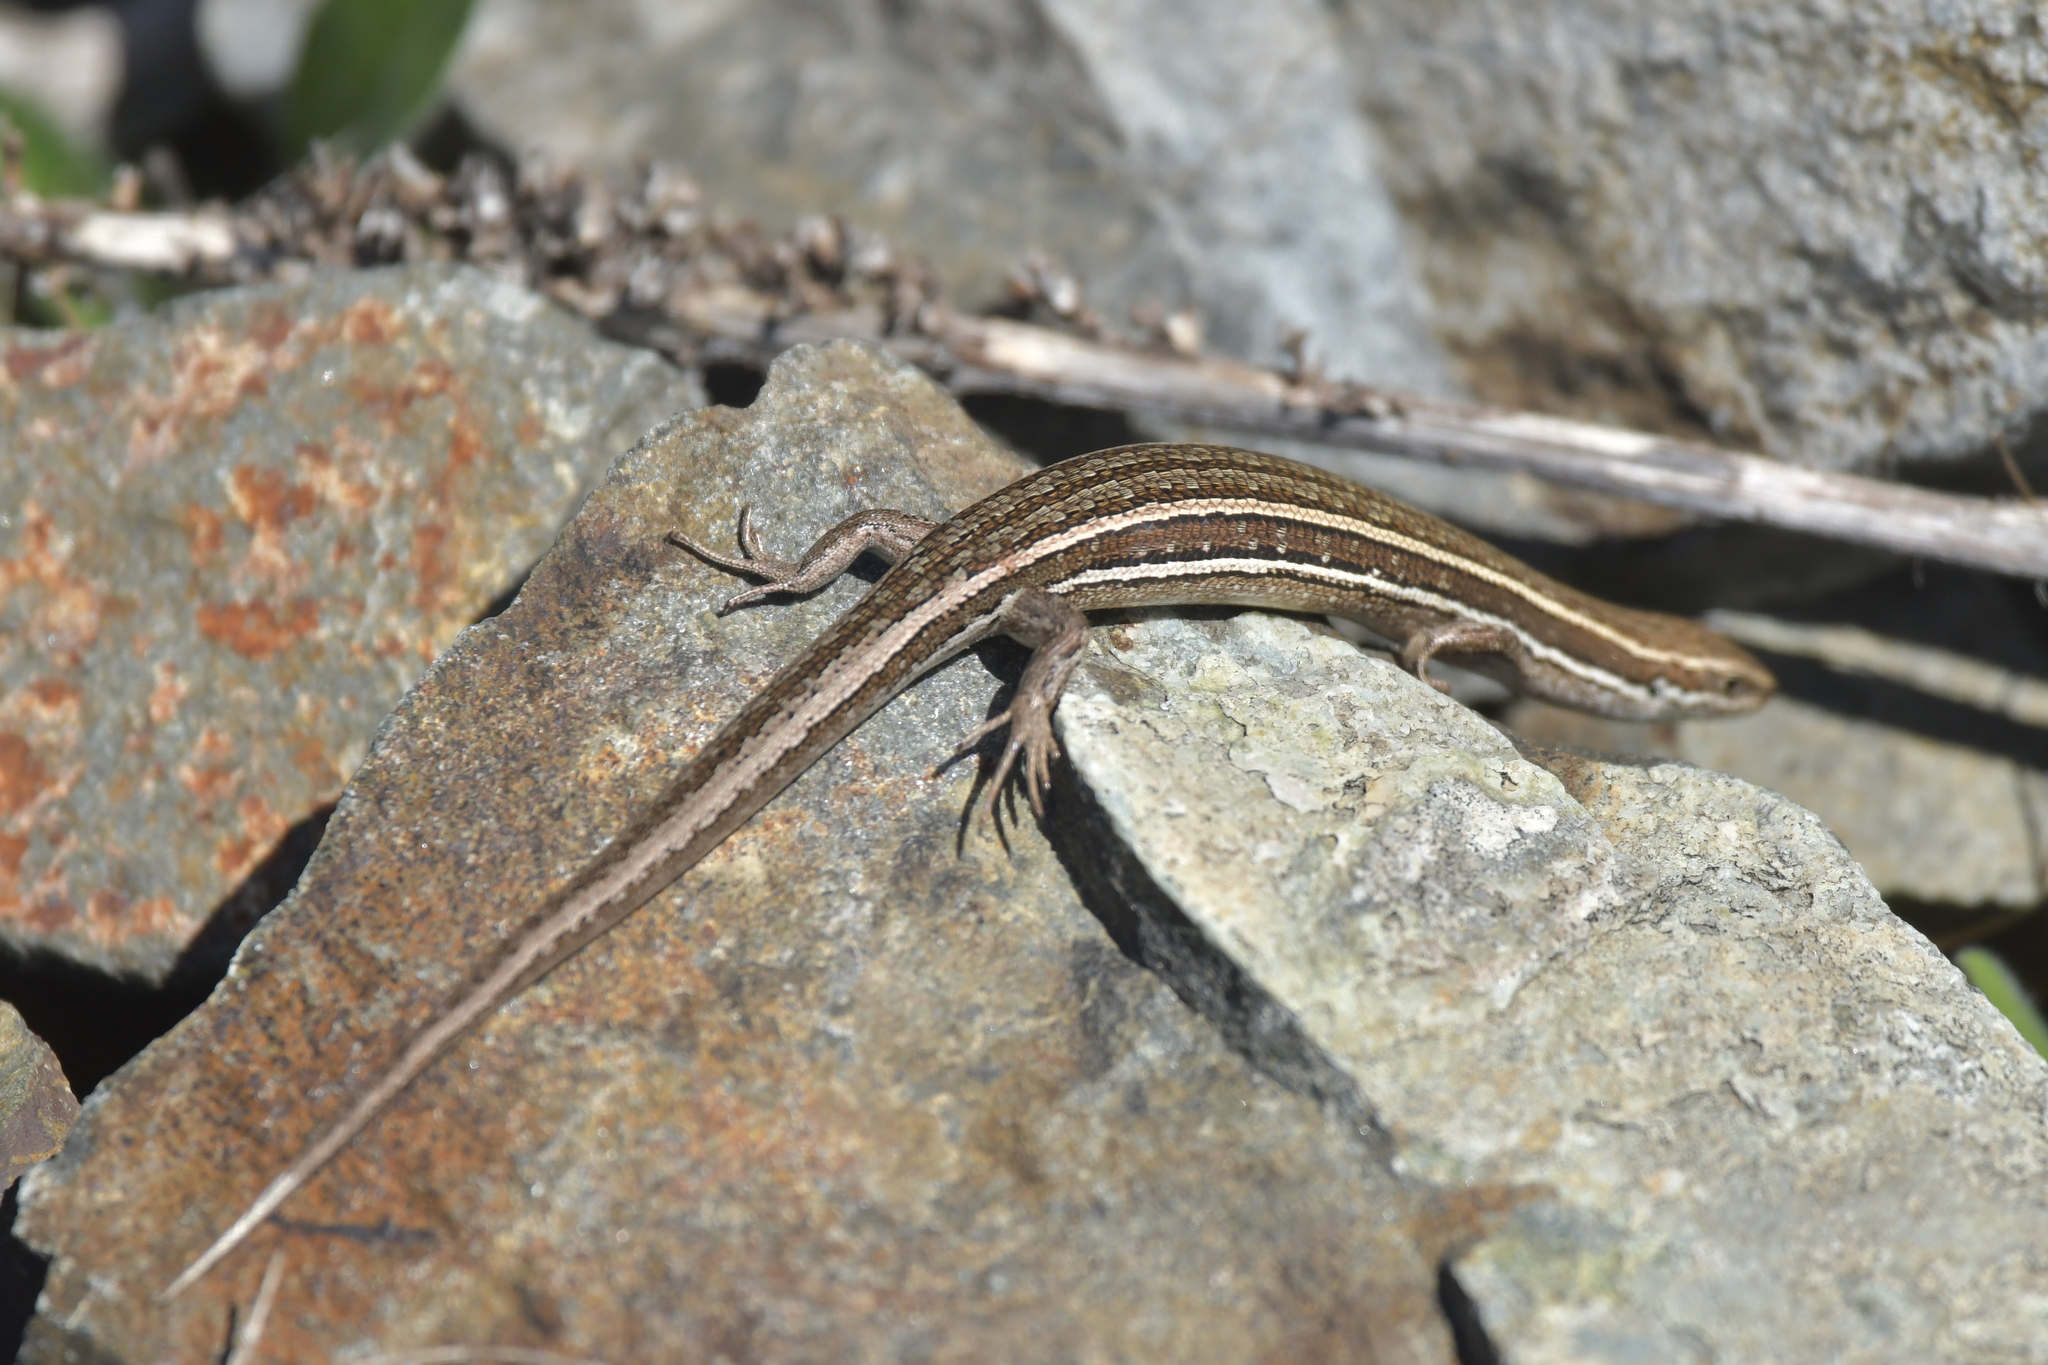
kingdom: Animalia
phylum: Chordata
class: Squamata
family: Scincidae
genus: Oligosoma
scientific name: Oligosoma maccanni
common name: Mccann’s skink
